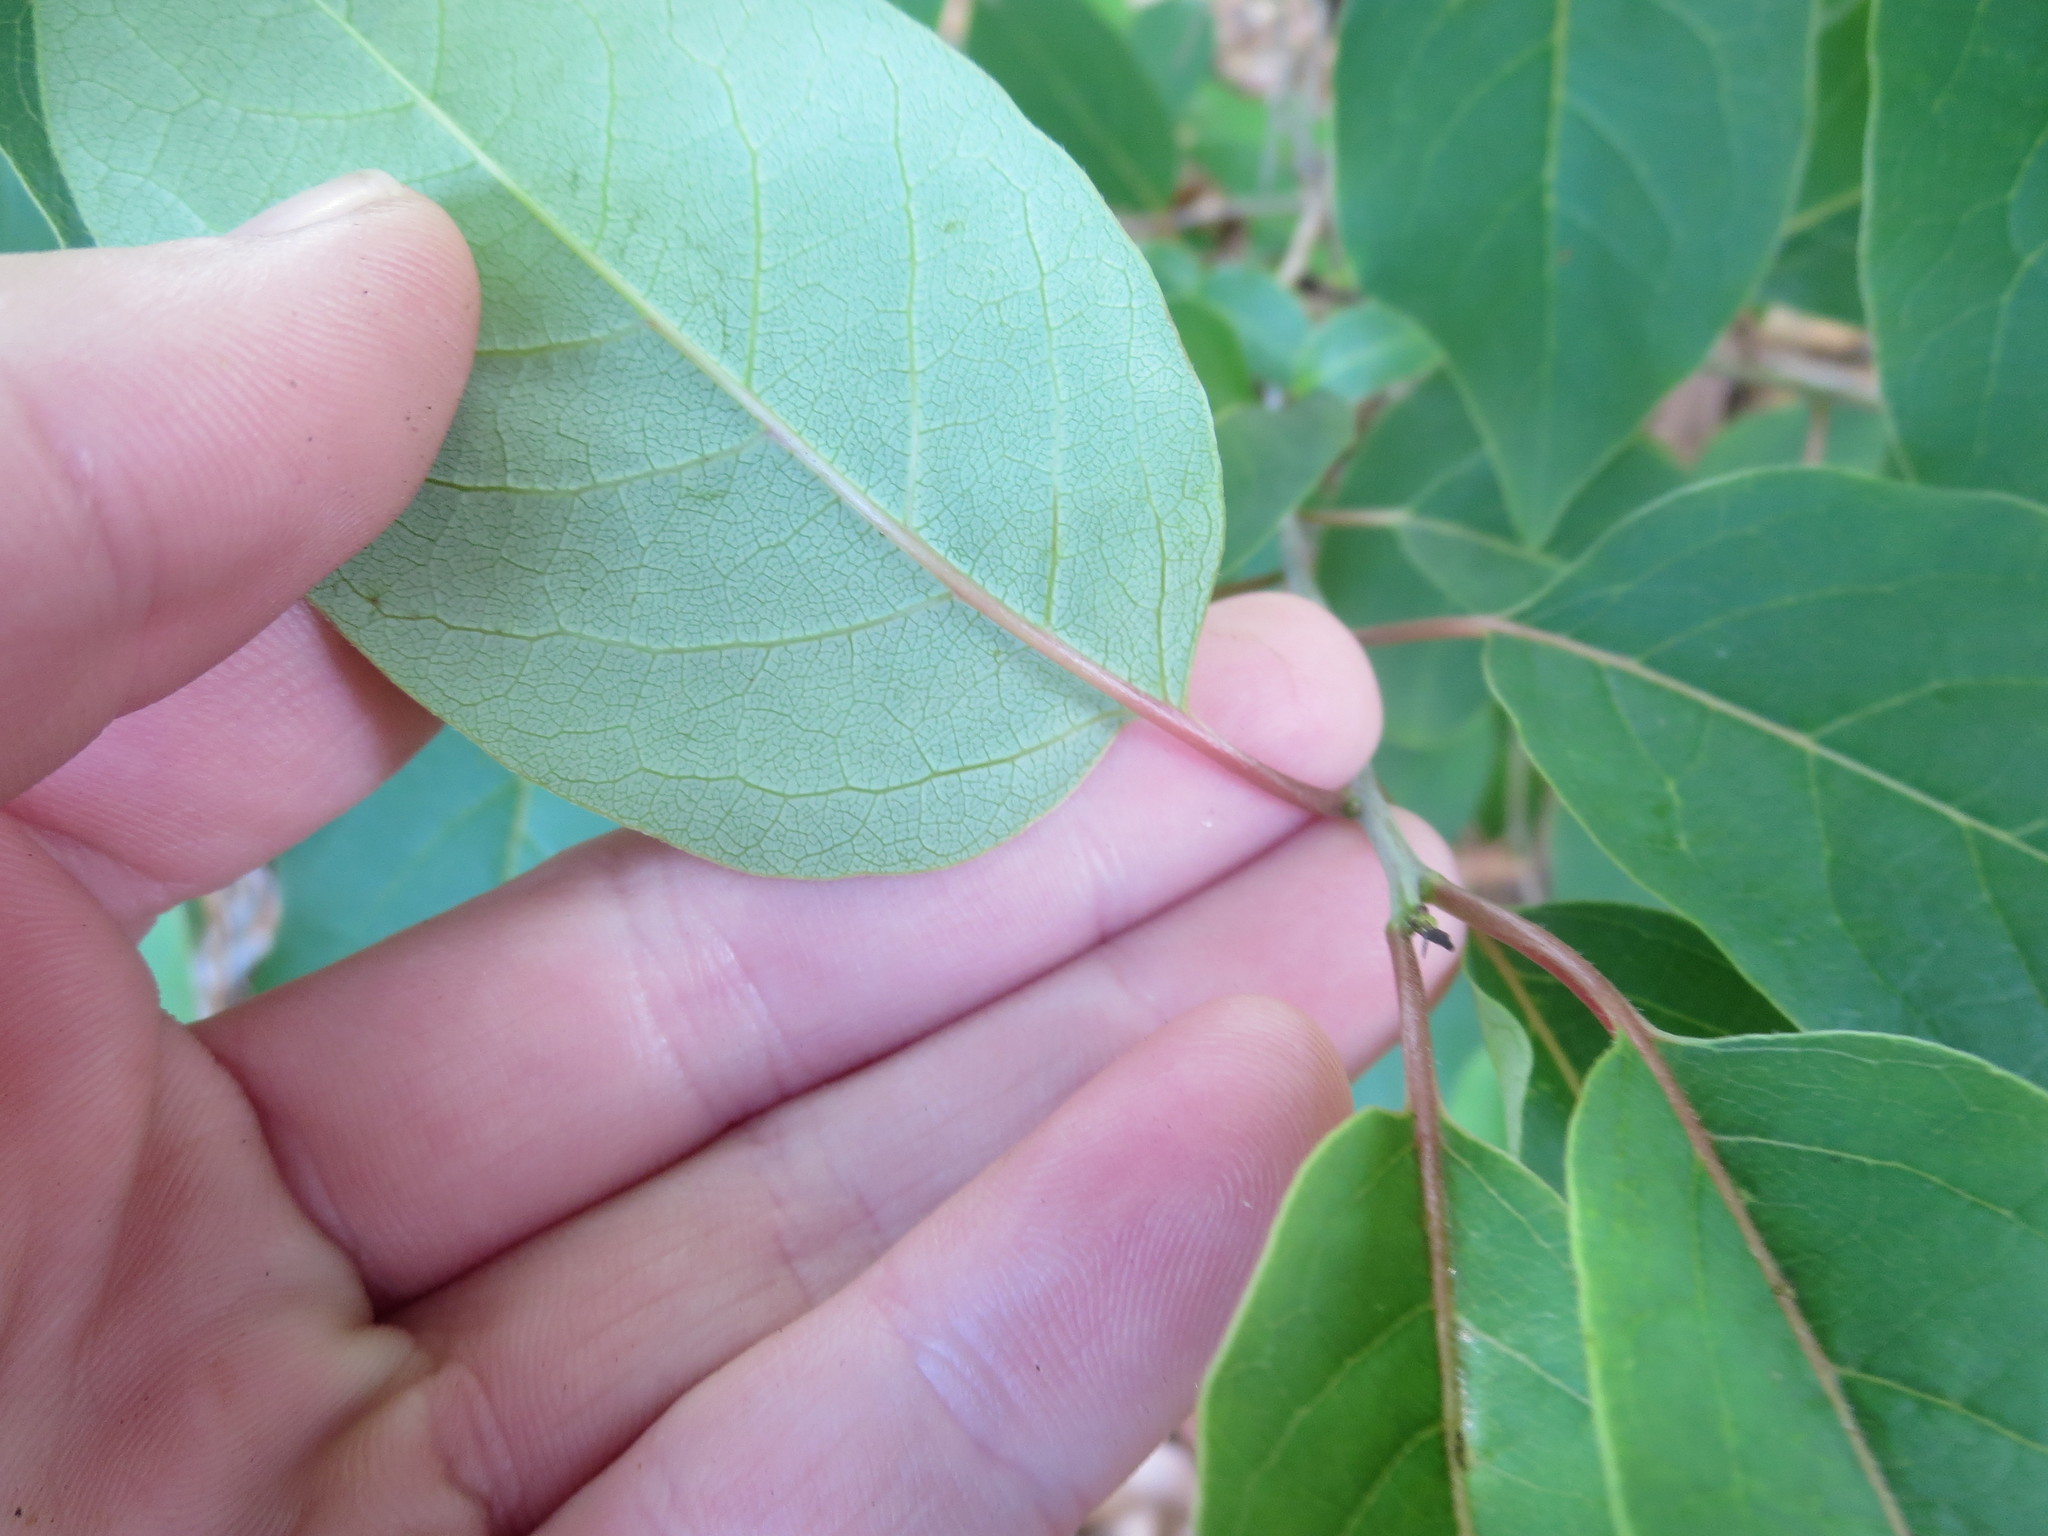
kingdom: Plantae
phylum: Tracheophyta
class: Magnoliopsida
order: Ericales
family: Ebenaceae
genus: Diospyros
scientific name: Diospyros virginiana
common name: Persimmon
